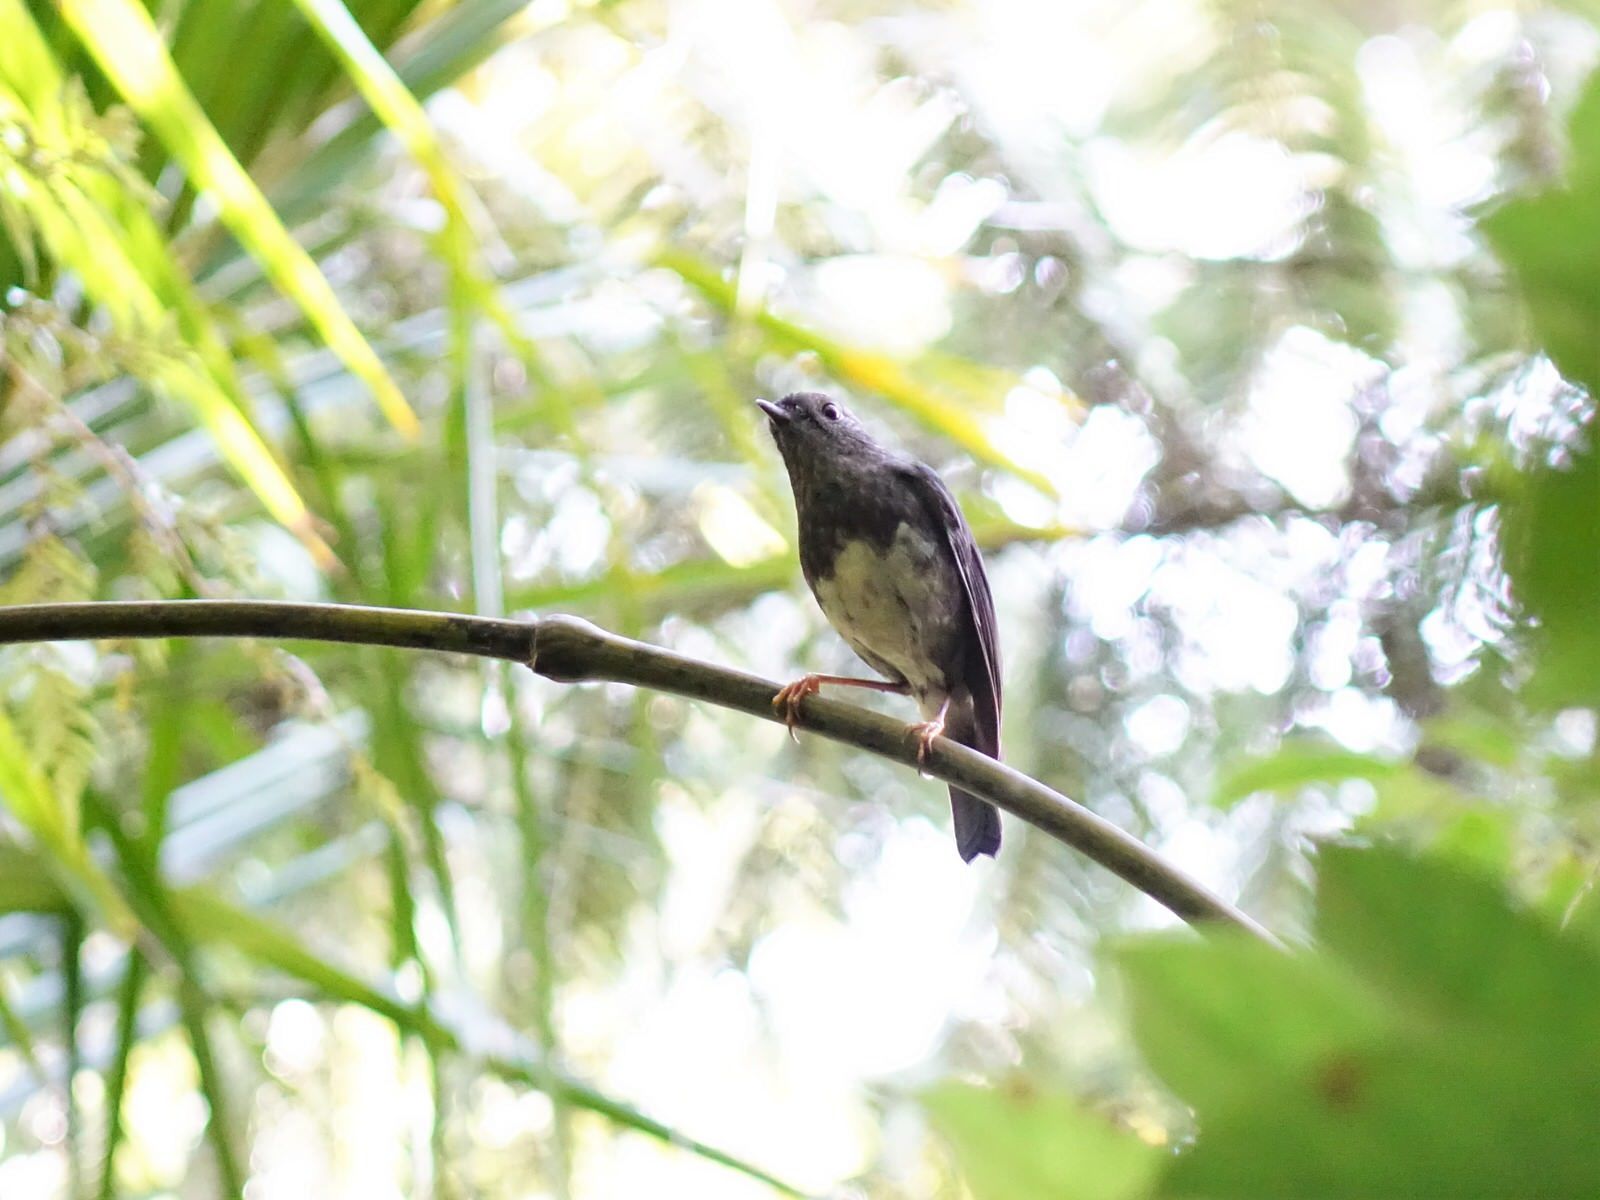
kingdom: Animalia
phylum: Chordata
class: Aves
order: Passeriformes
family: Petroicidae
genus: Petroica
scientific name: Petroica australis
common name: New zealand robin
